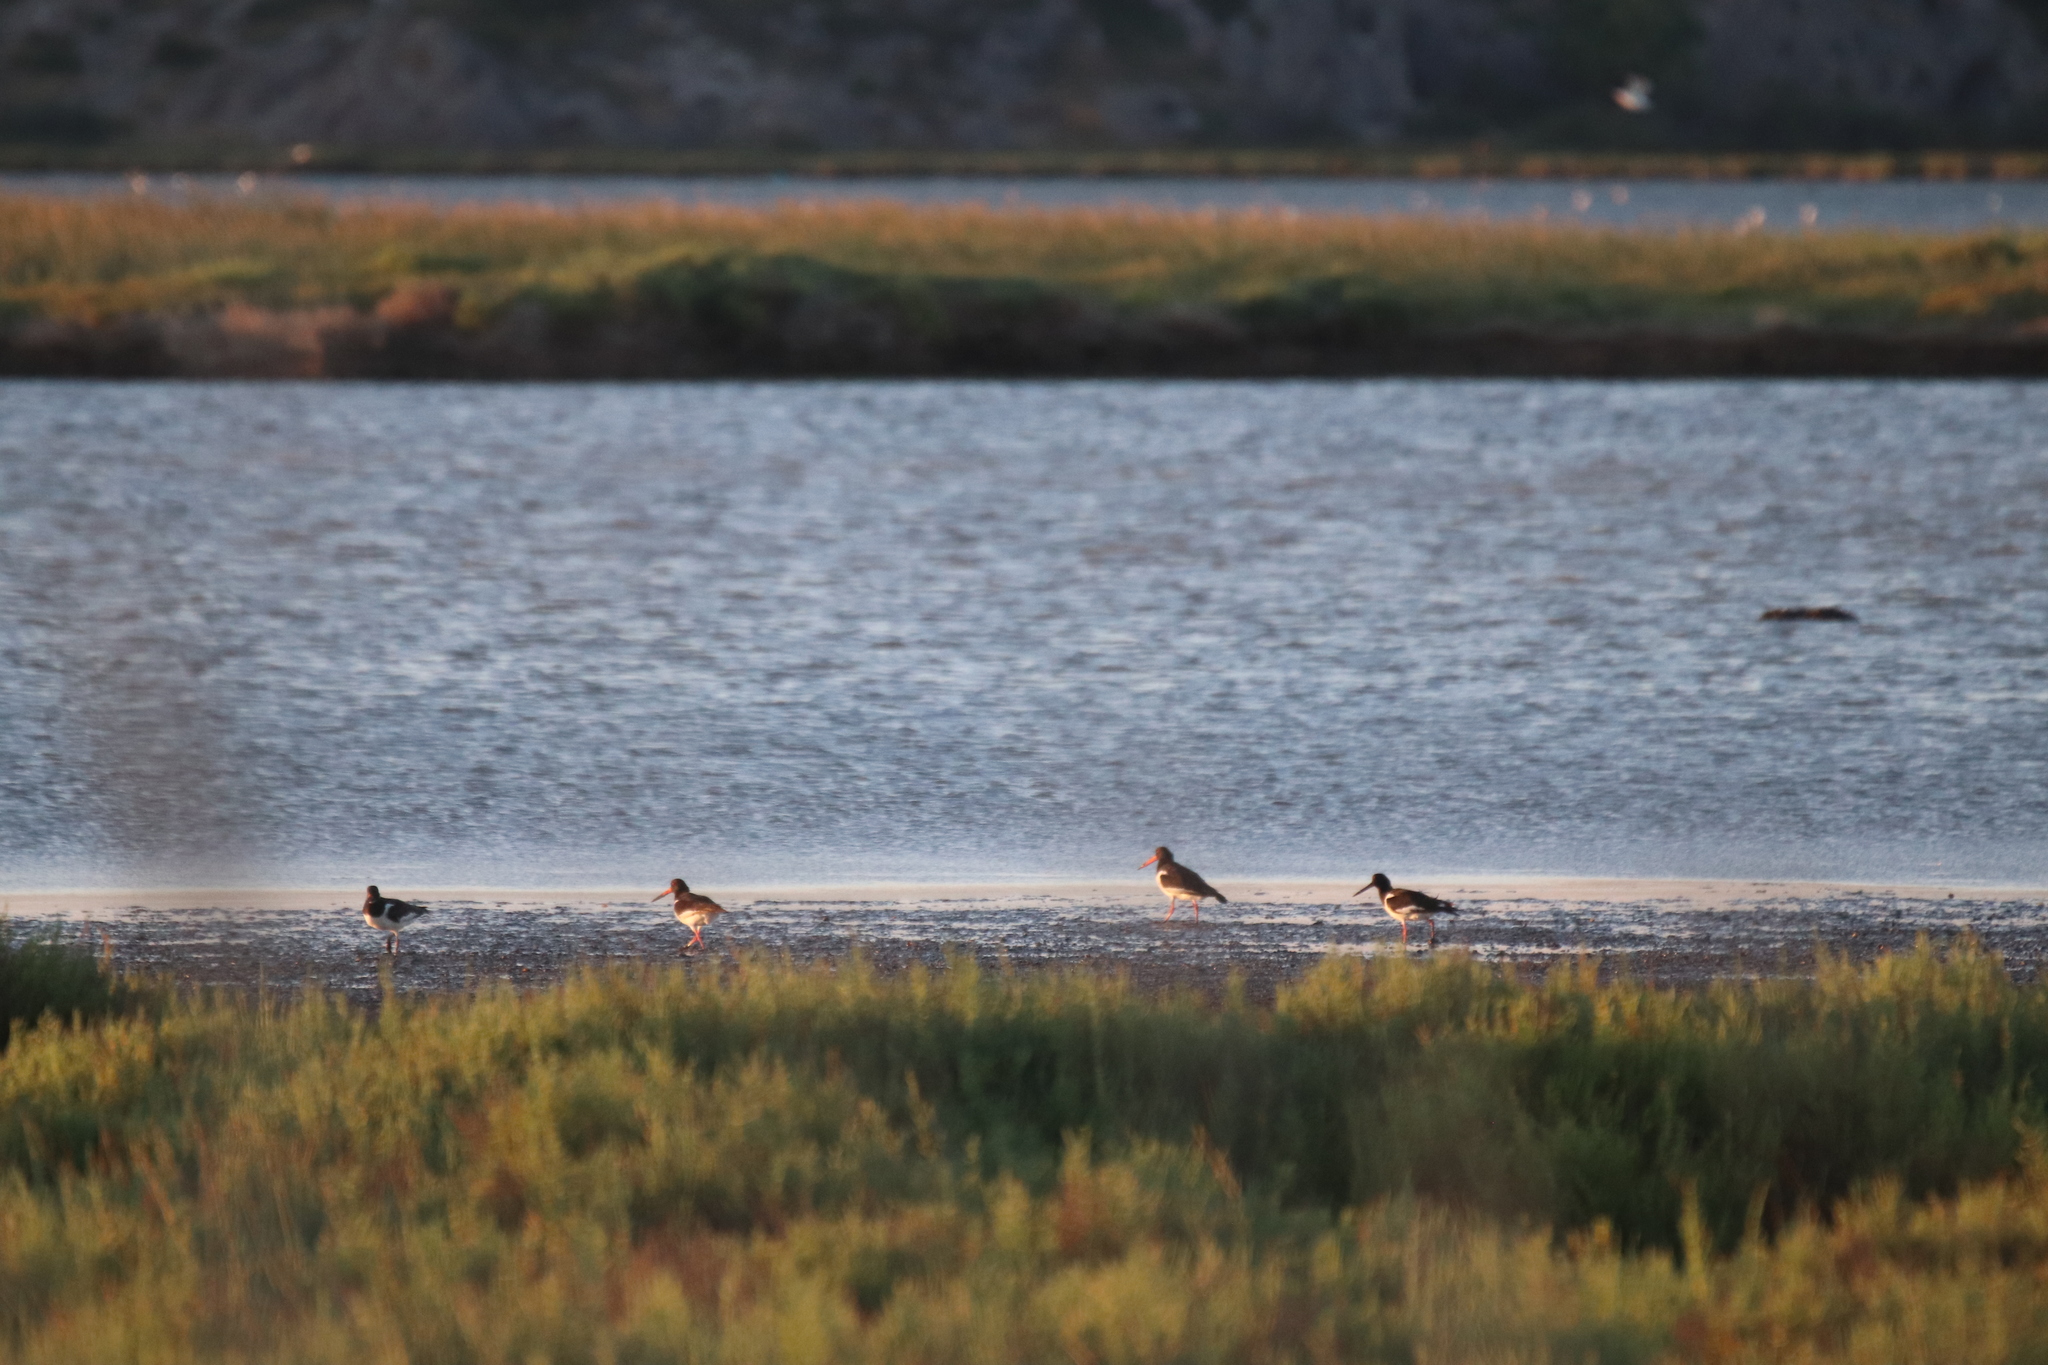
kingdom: Animalia
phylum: Chordata
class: Aves
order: Charadriiformes
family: Haematopodidae
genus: Haematopus
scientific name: Haematopus ostralegus
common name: Eurasian oystercatcher
